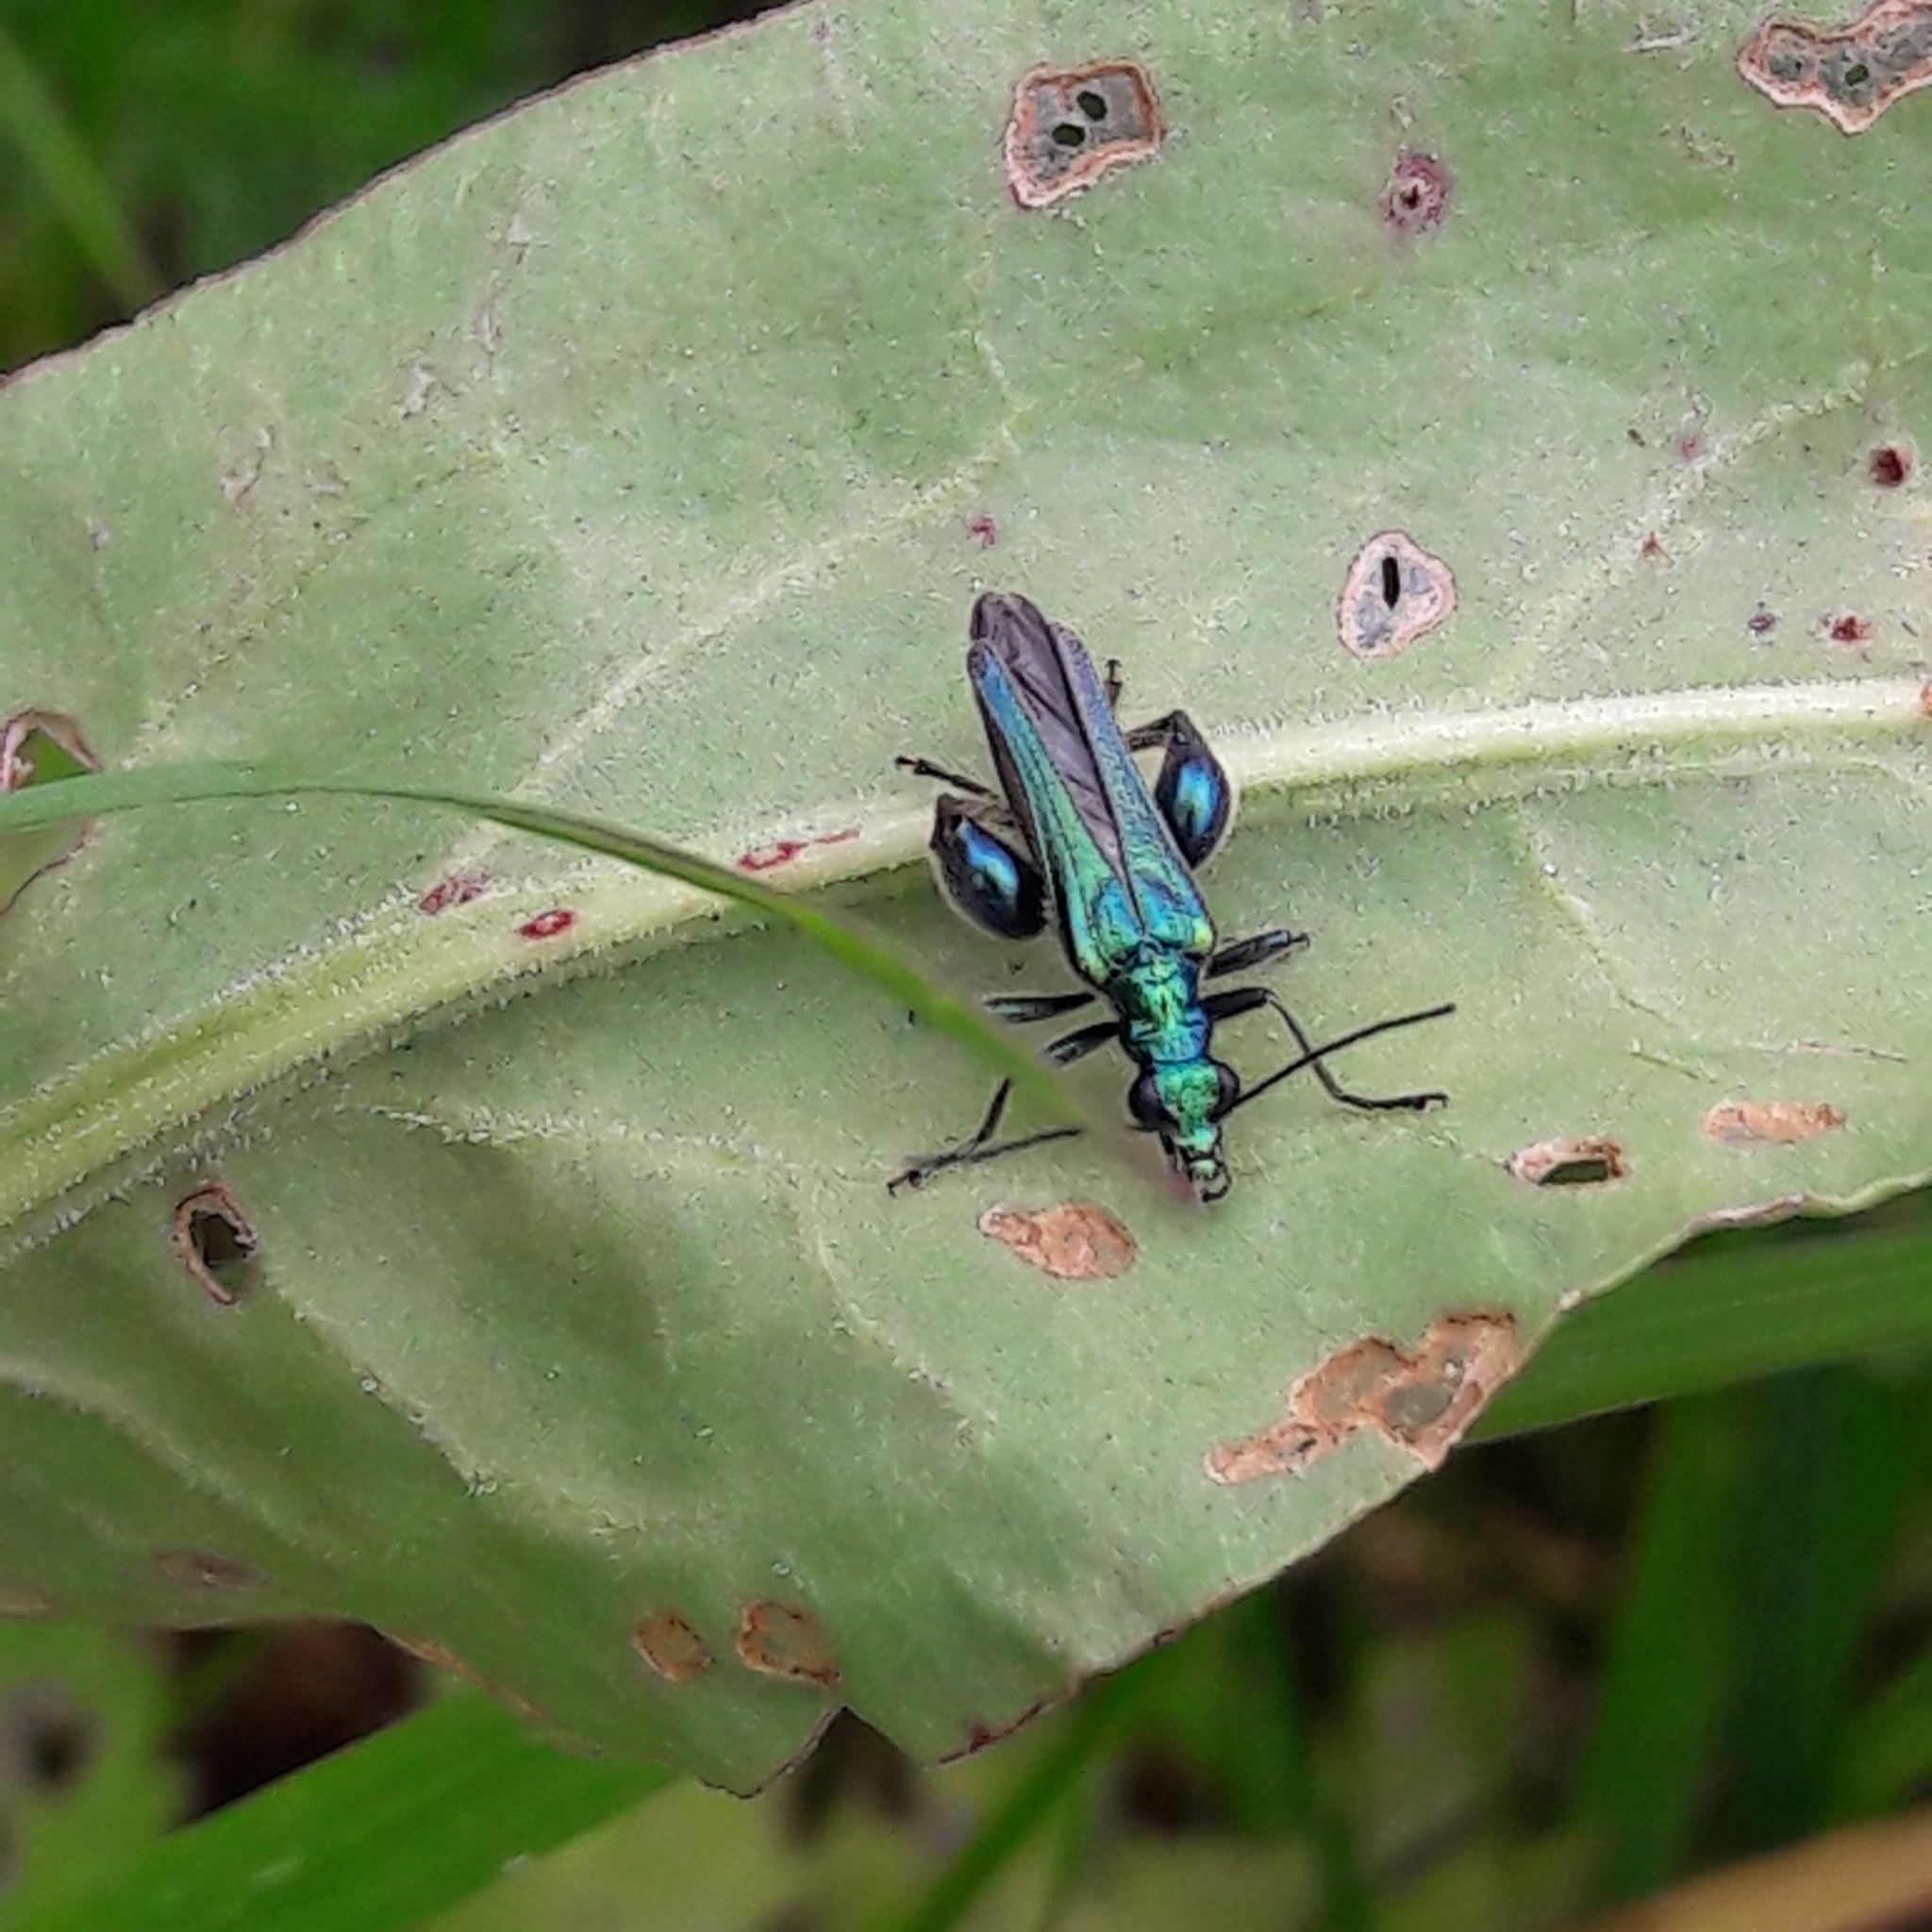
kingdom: Animalia
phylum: Arthropoda
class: Insecta
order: Coleoptera
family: Oedemeridae
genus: Oedemera
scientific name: Oedemera nobilis
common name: Swollen-thighed beetle
